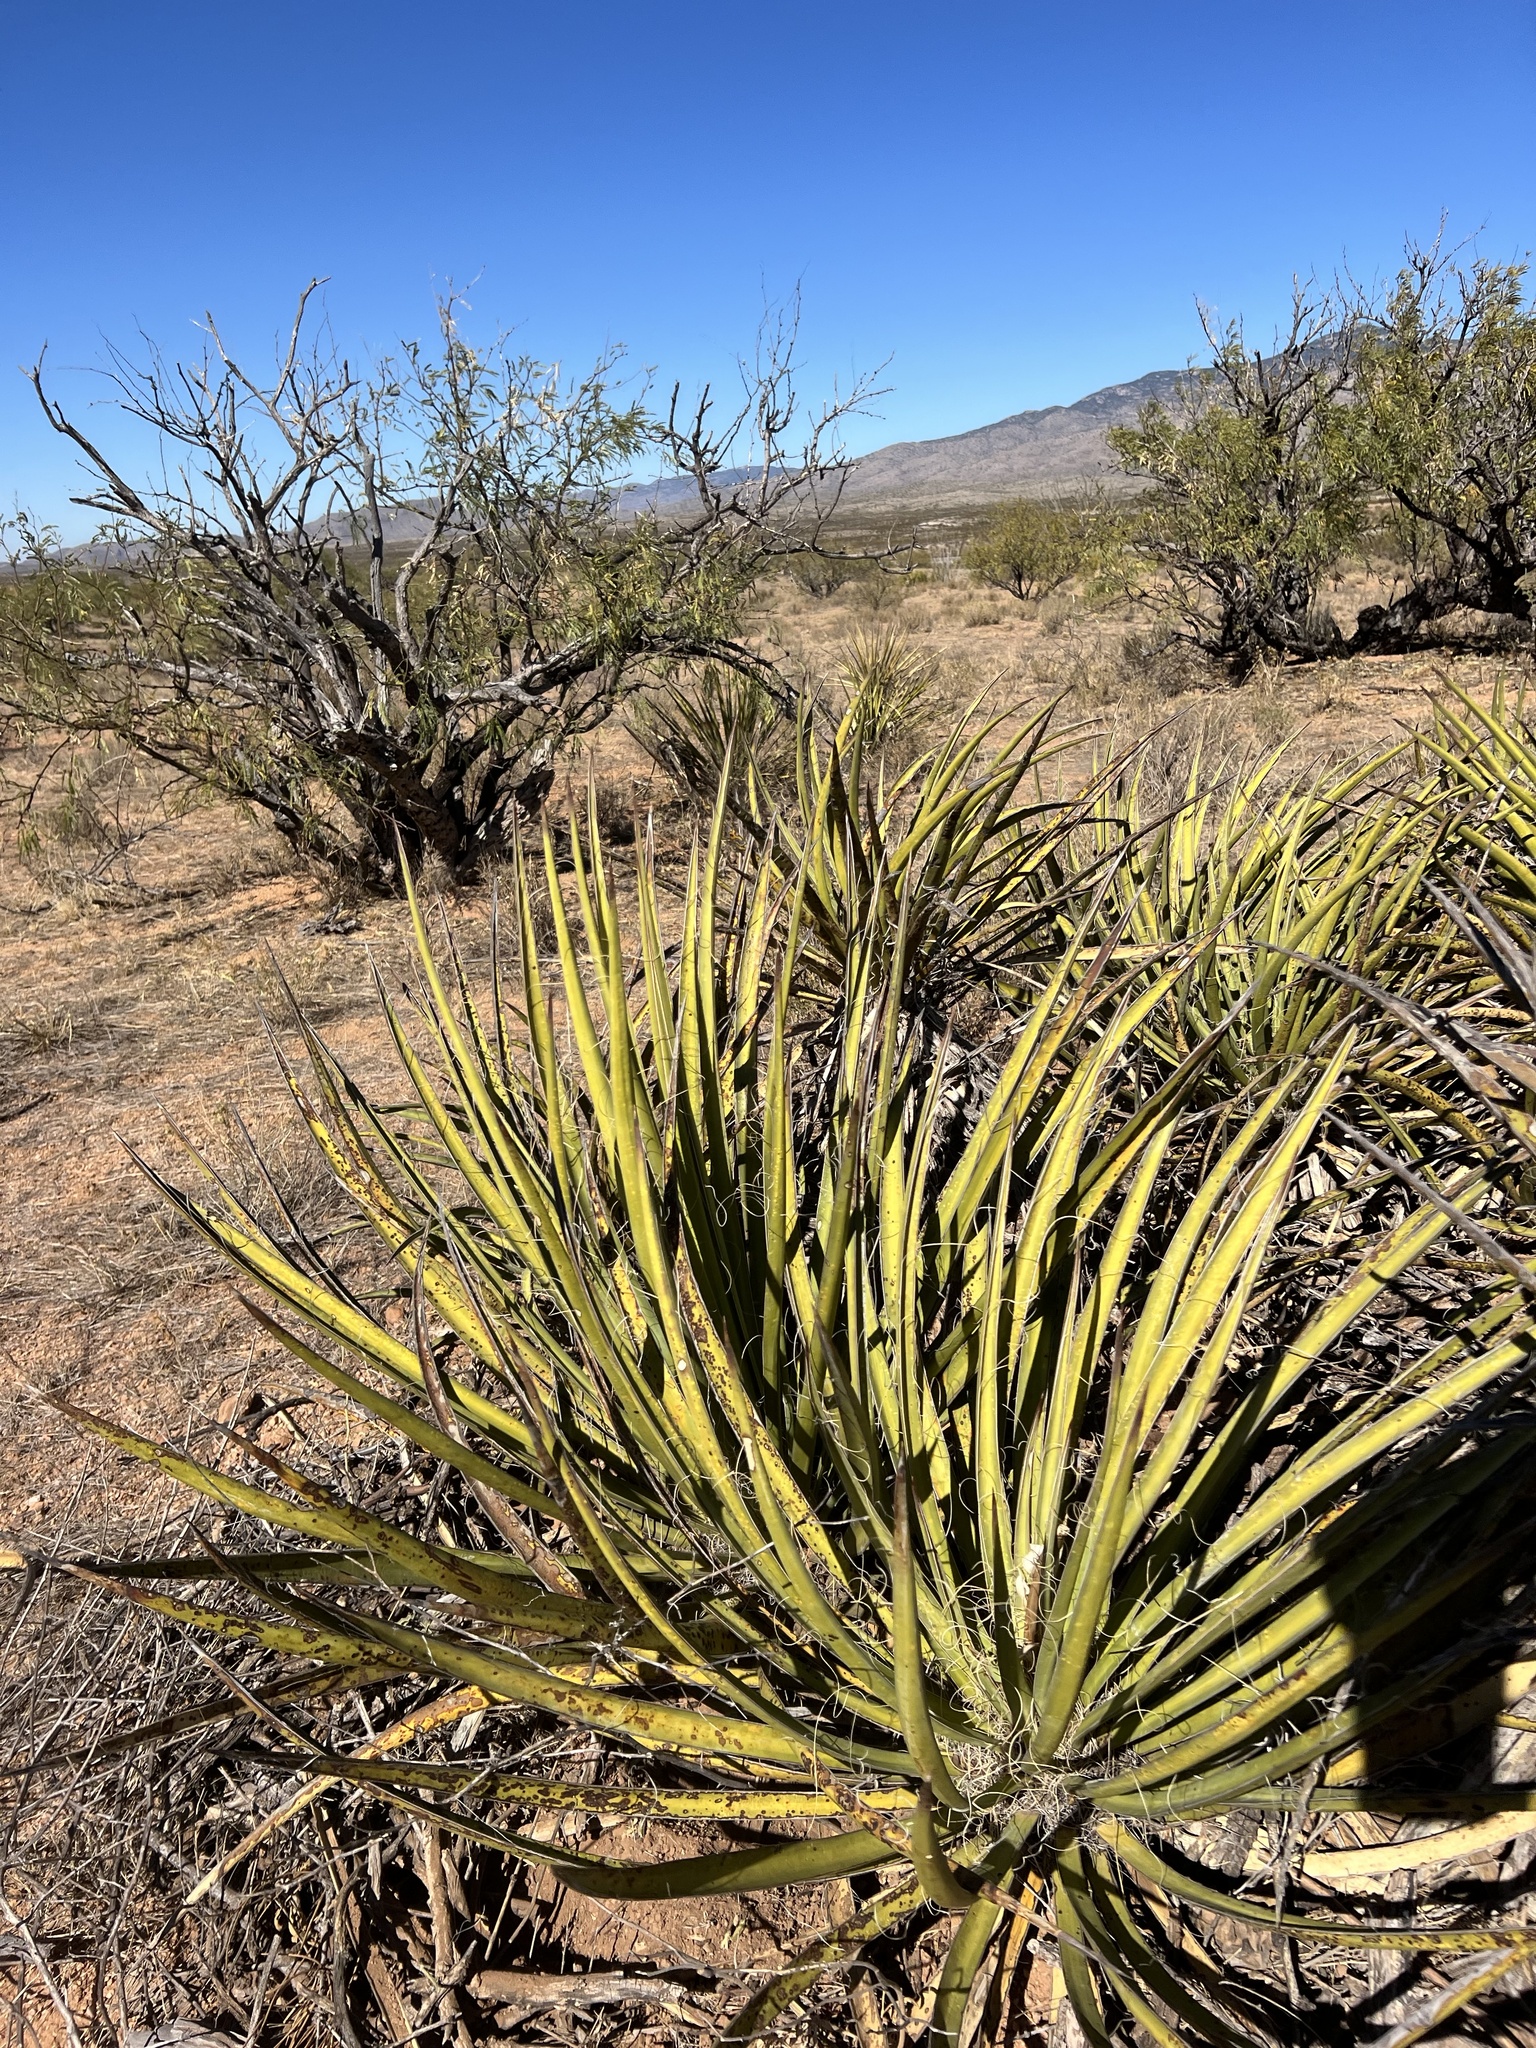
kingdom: Plantae
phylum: Tracheophyta
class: Liliopsida
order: Asparagales
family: Asparagaceae
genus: Yucca
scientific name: Yucca baccata
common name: Banana yucca
